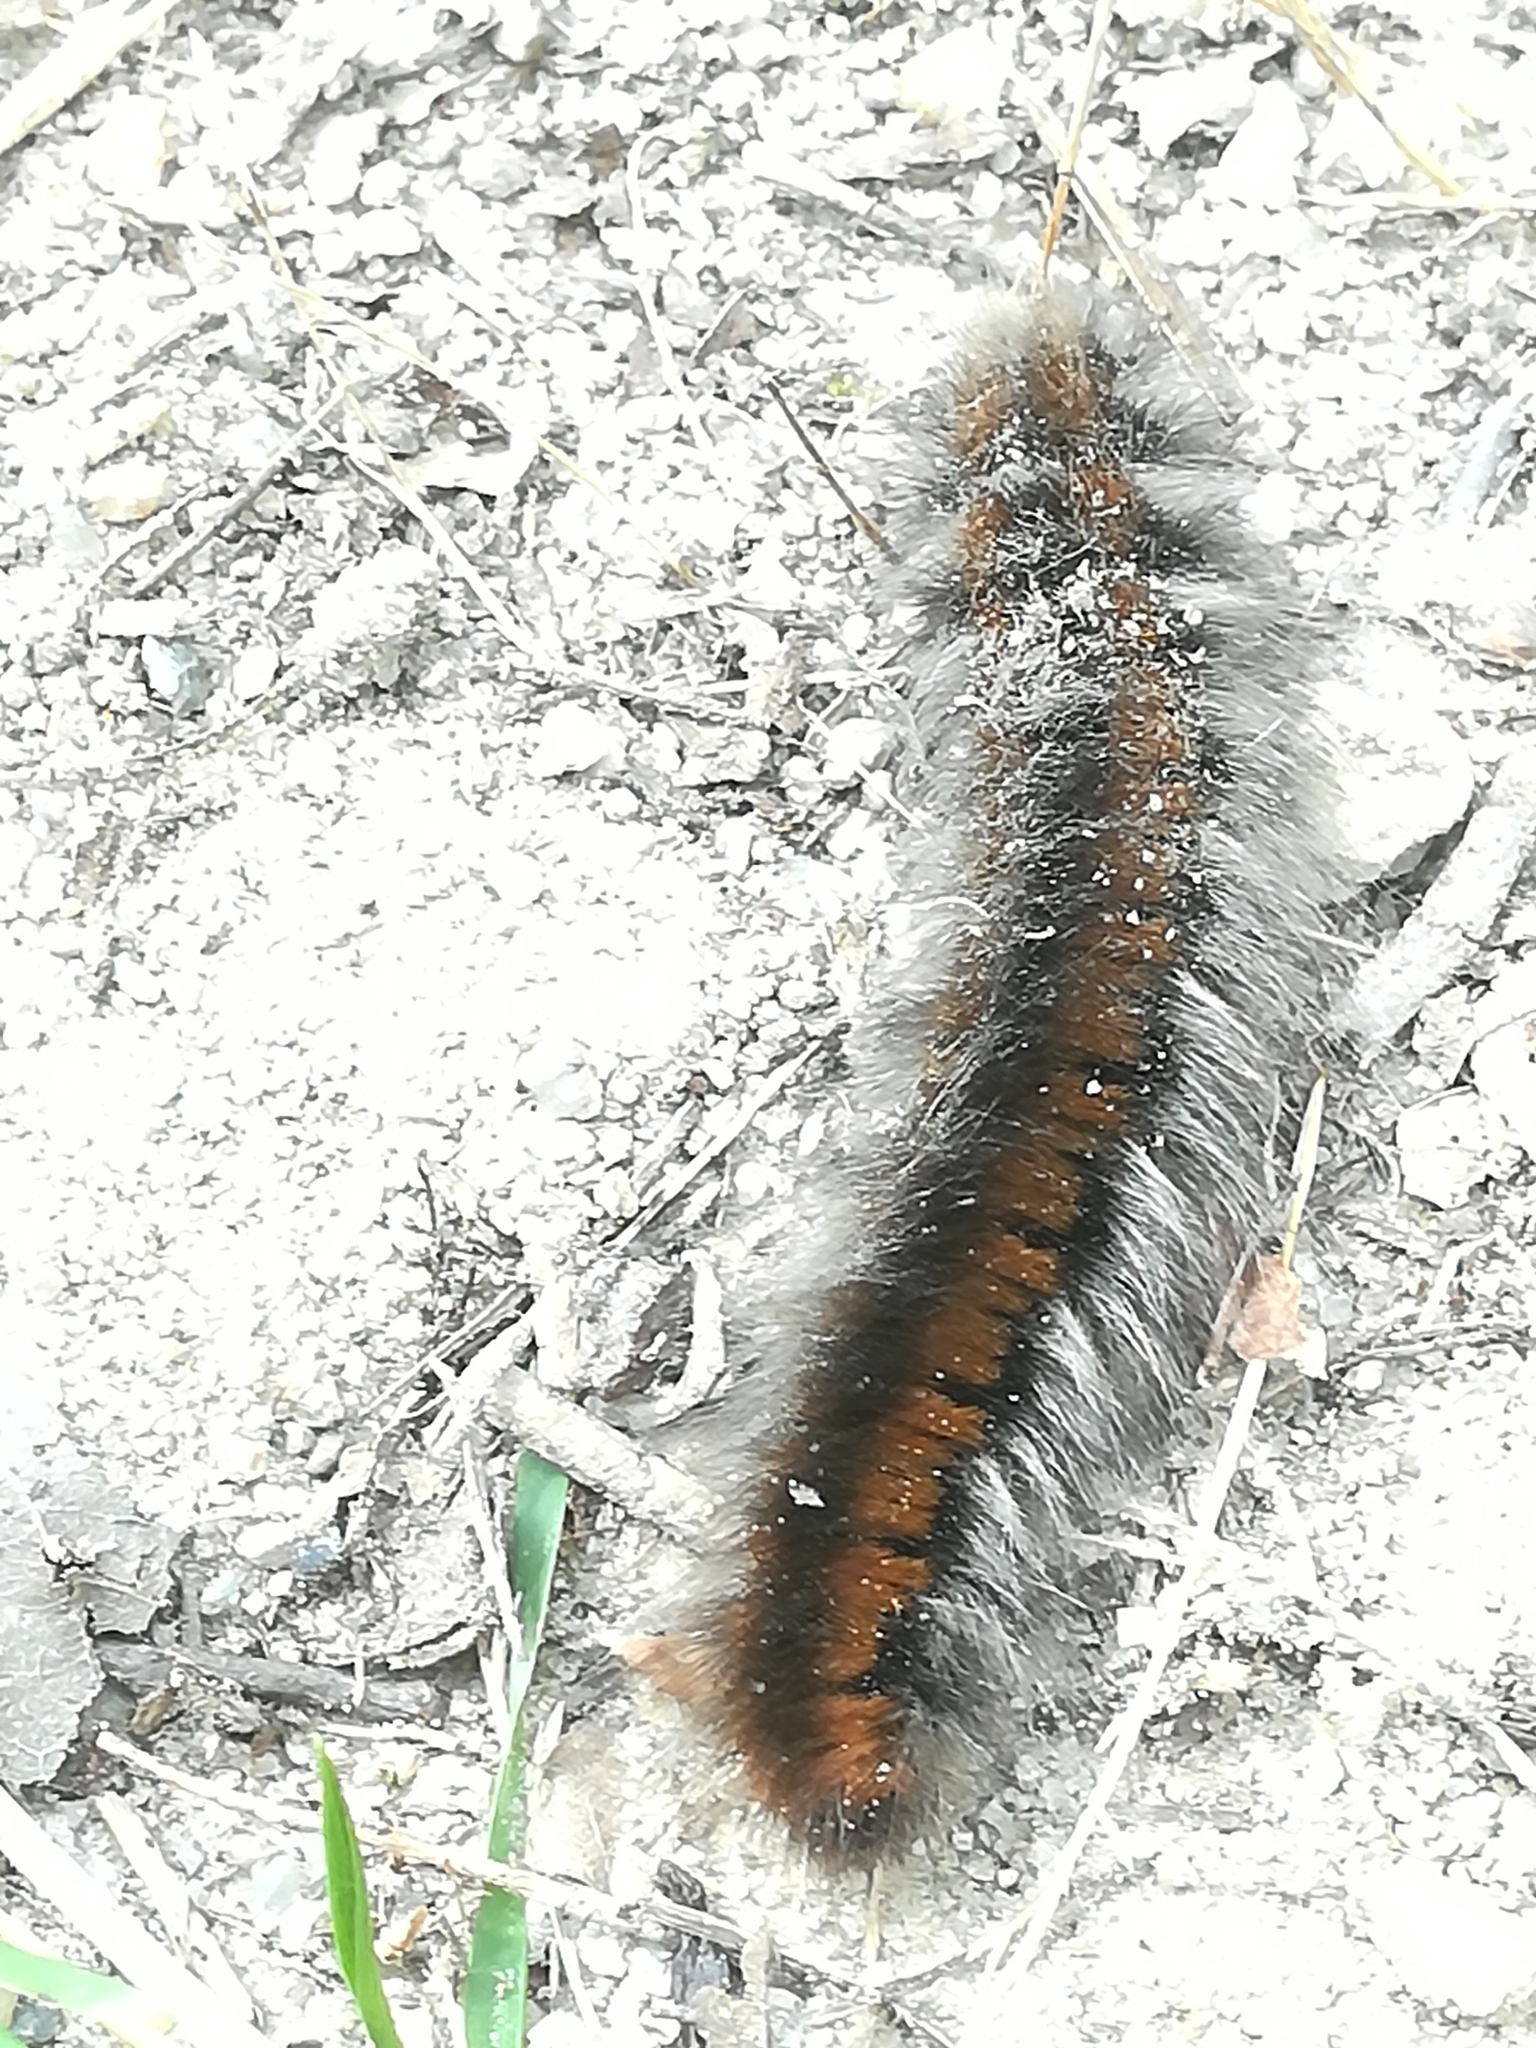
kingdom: Animalia
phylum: Arthropoda
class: Insecta
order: Lepidoptera
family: Lasiocampidae
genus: Macrothylacia
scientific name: Macrothylacia rubi
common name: Fox moth
